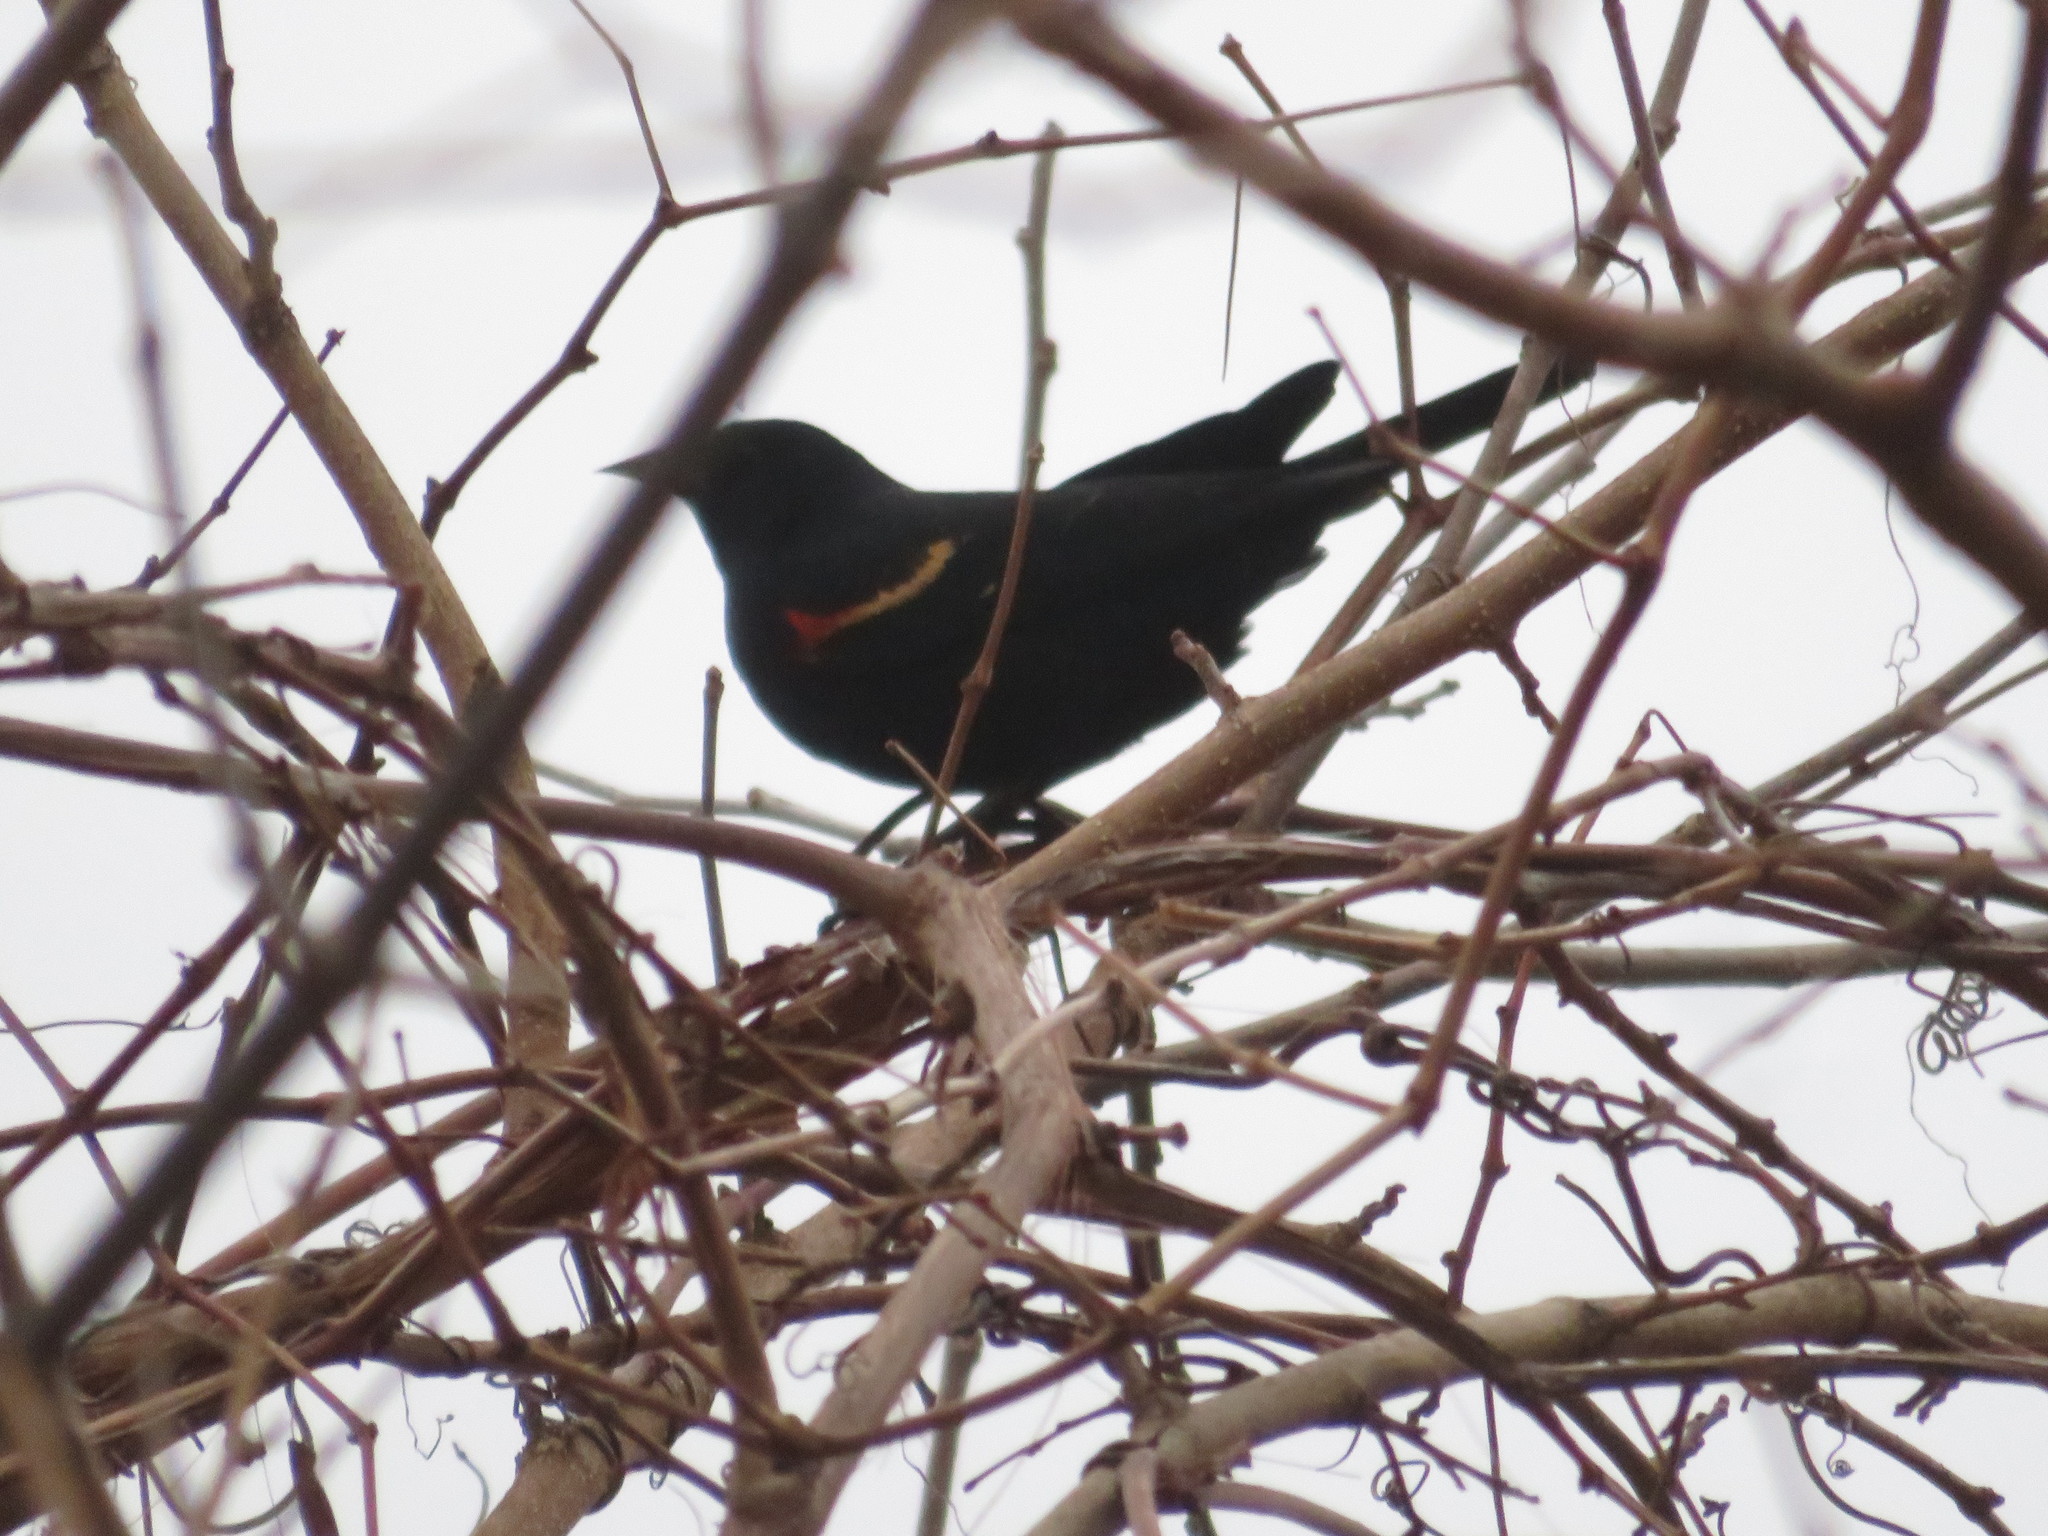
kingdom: Animalia
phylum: Chordata
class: Aves
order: Passeriformes
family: Icteridae
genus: Agelaius
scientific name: Agelaius phoeniceus
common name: Red-winged blackbird
